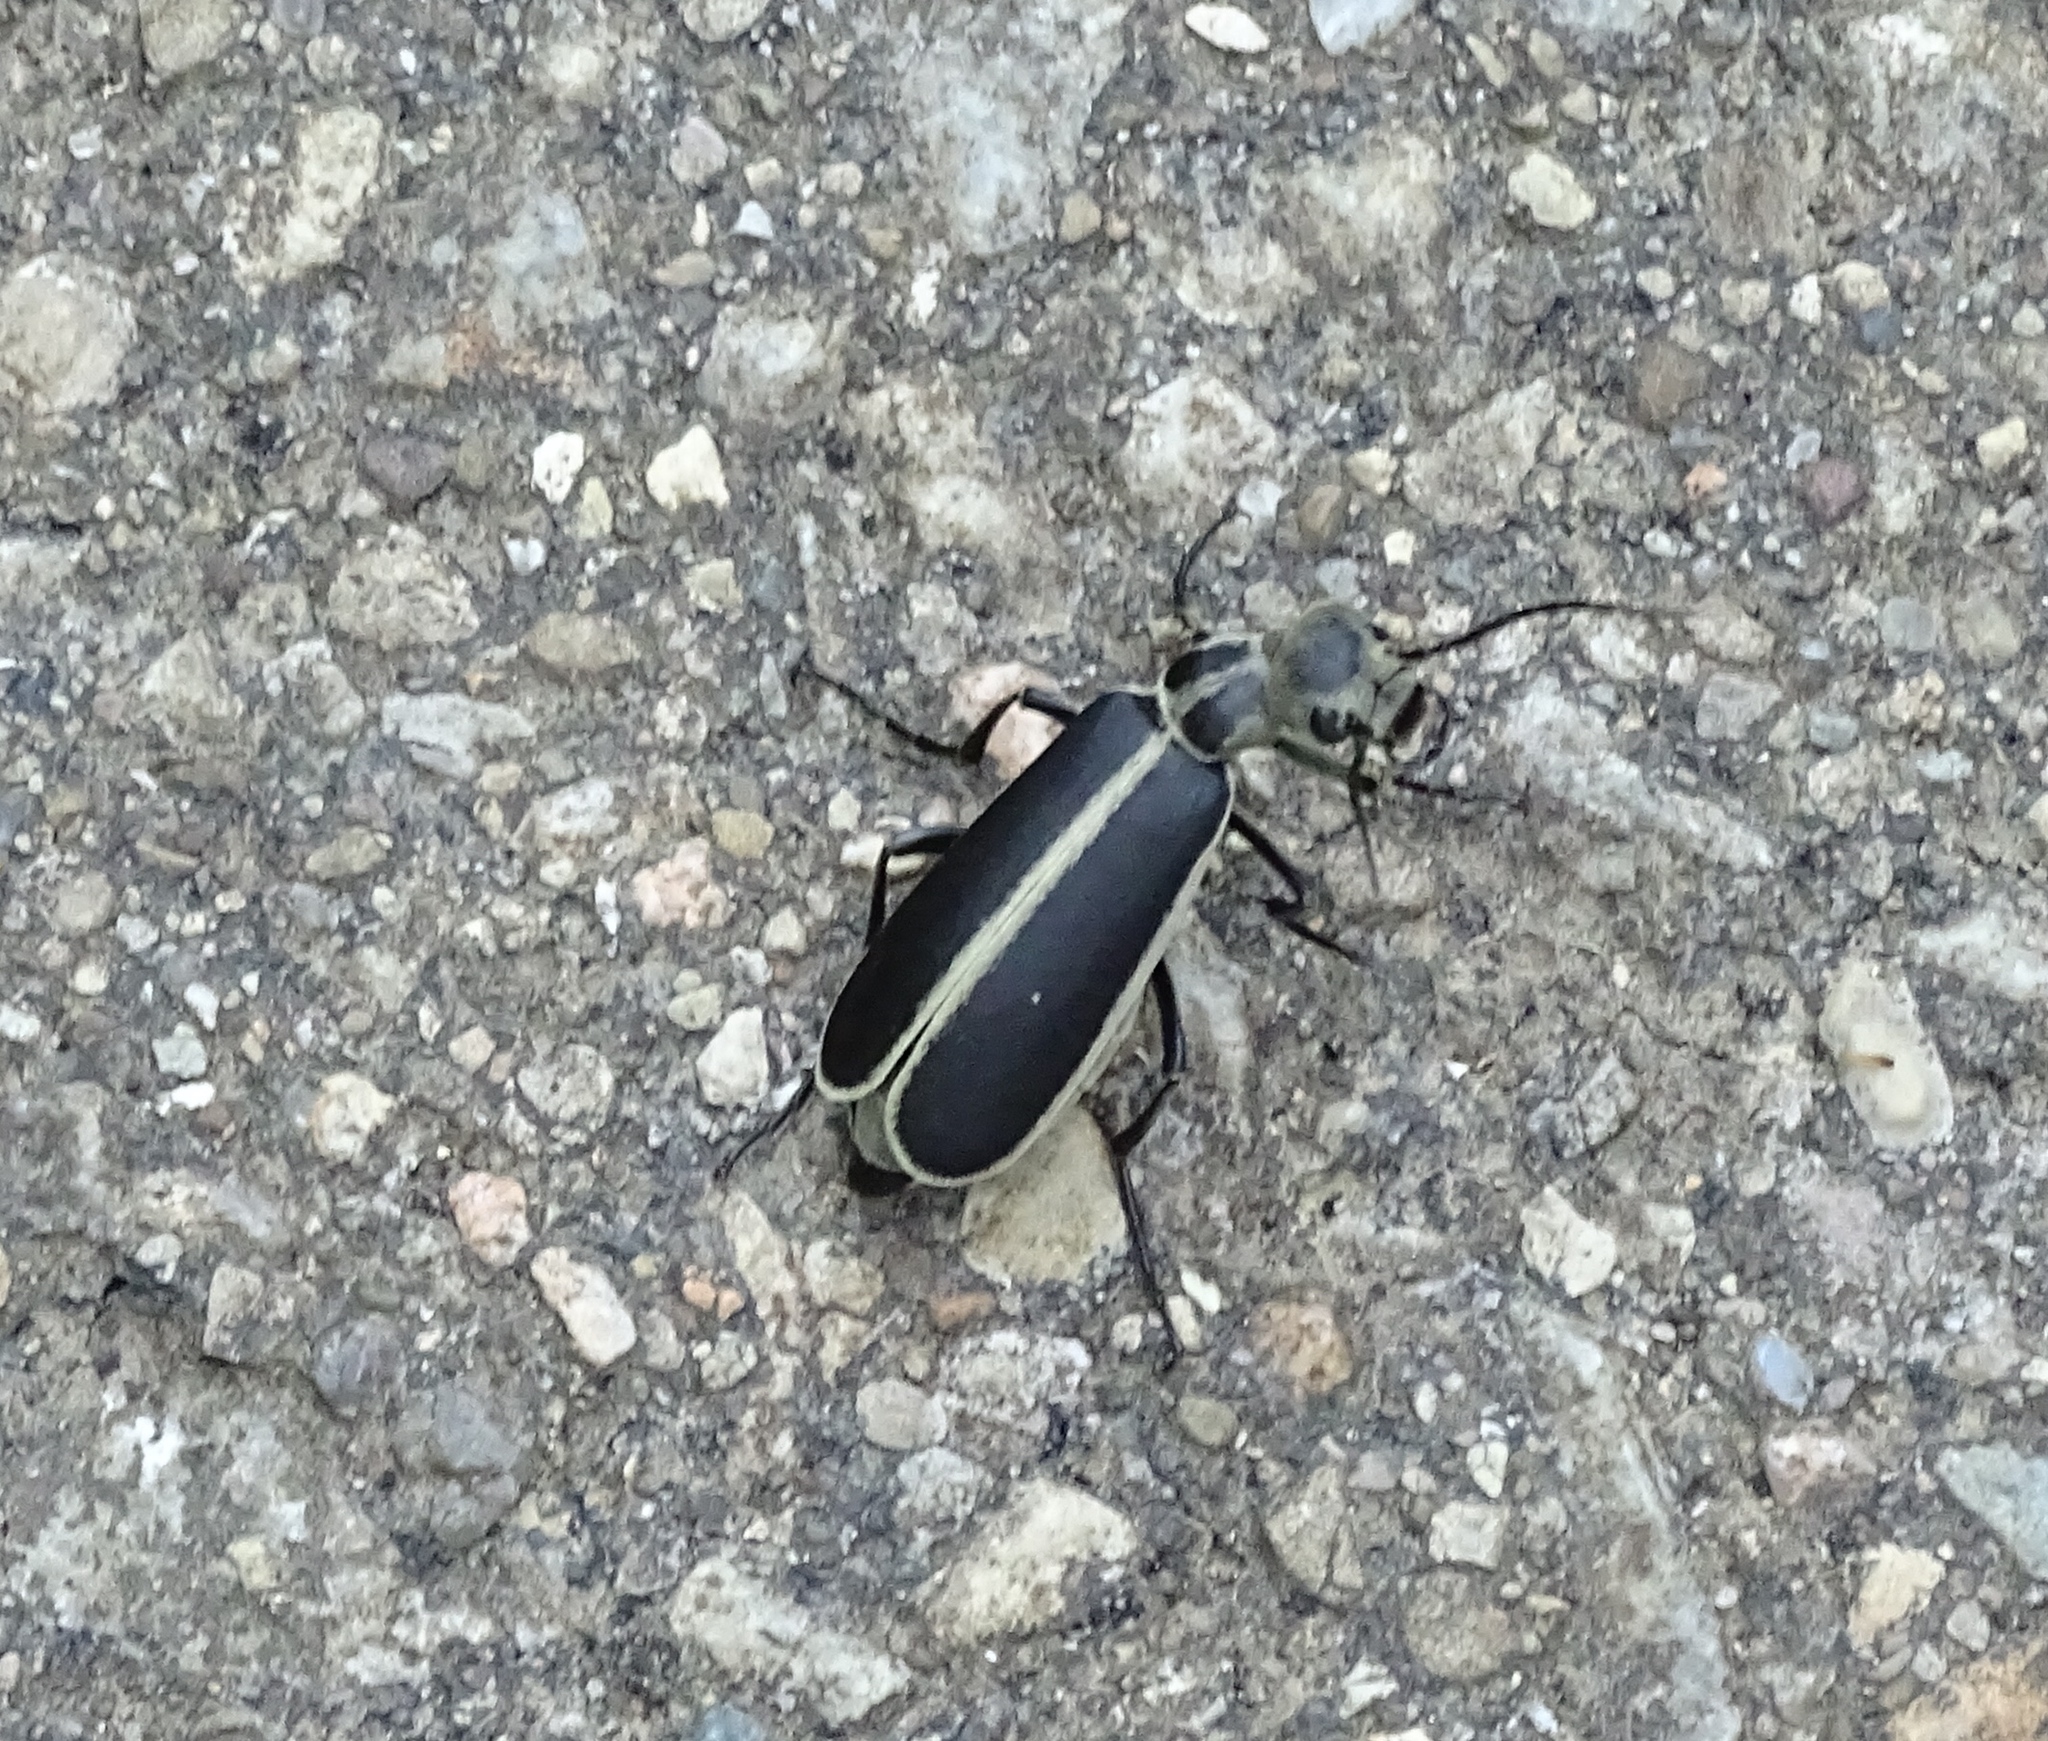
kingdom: Animalia
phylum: Arthropoda
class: Insecta
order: Coleoptera
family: Meloidae
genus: Epicauta
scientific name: Epicauta funebris
